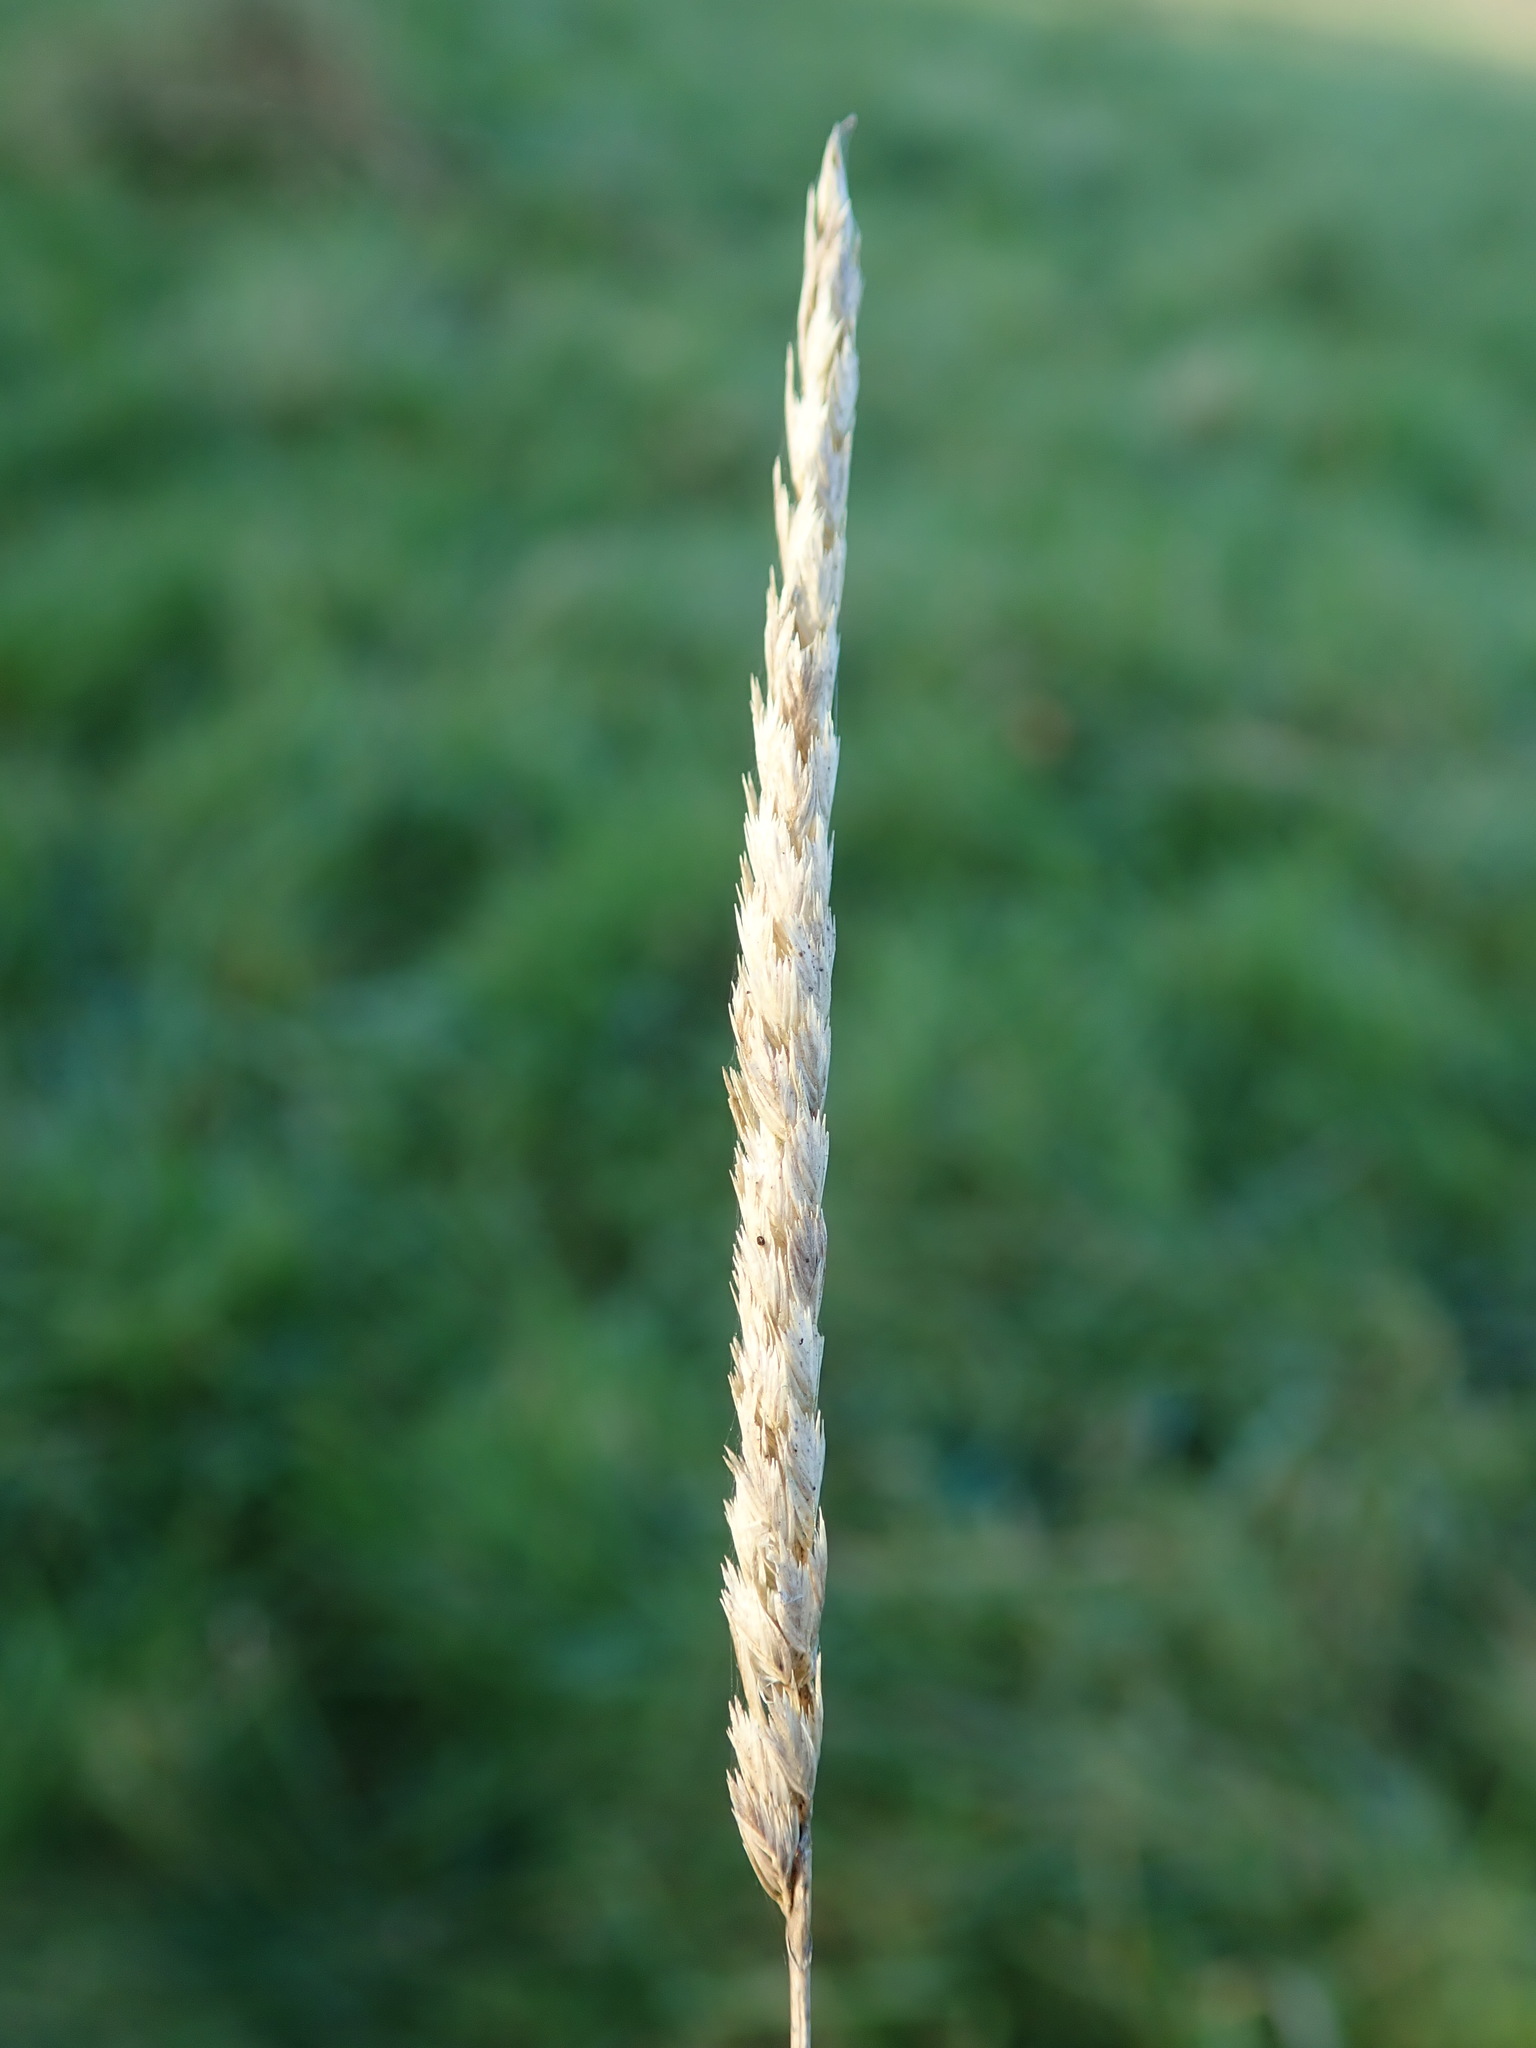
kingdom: Plantae
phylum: Tracheophyta
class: Liliopsida
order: Poales
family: Poaceae
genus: Cynosurus
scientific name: Cynosurus cristatus
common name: Crested dog's-tail
